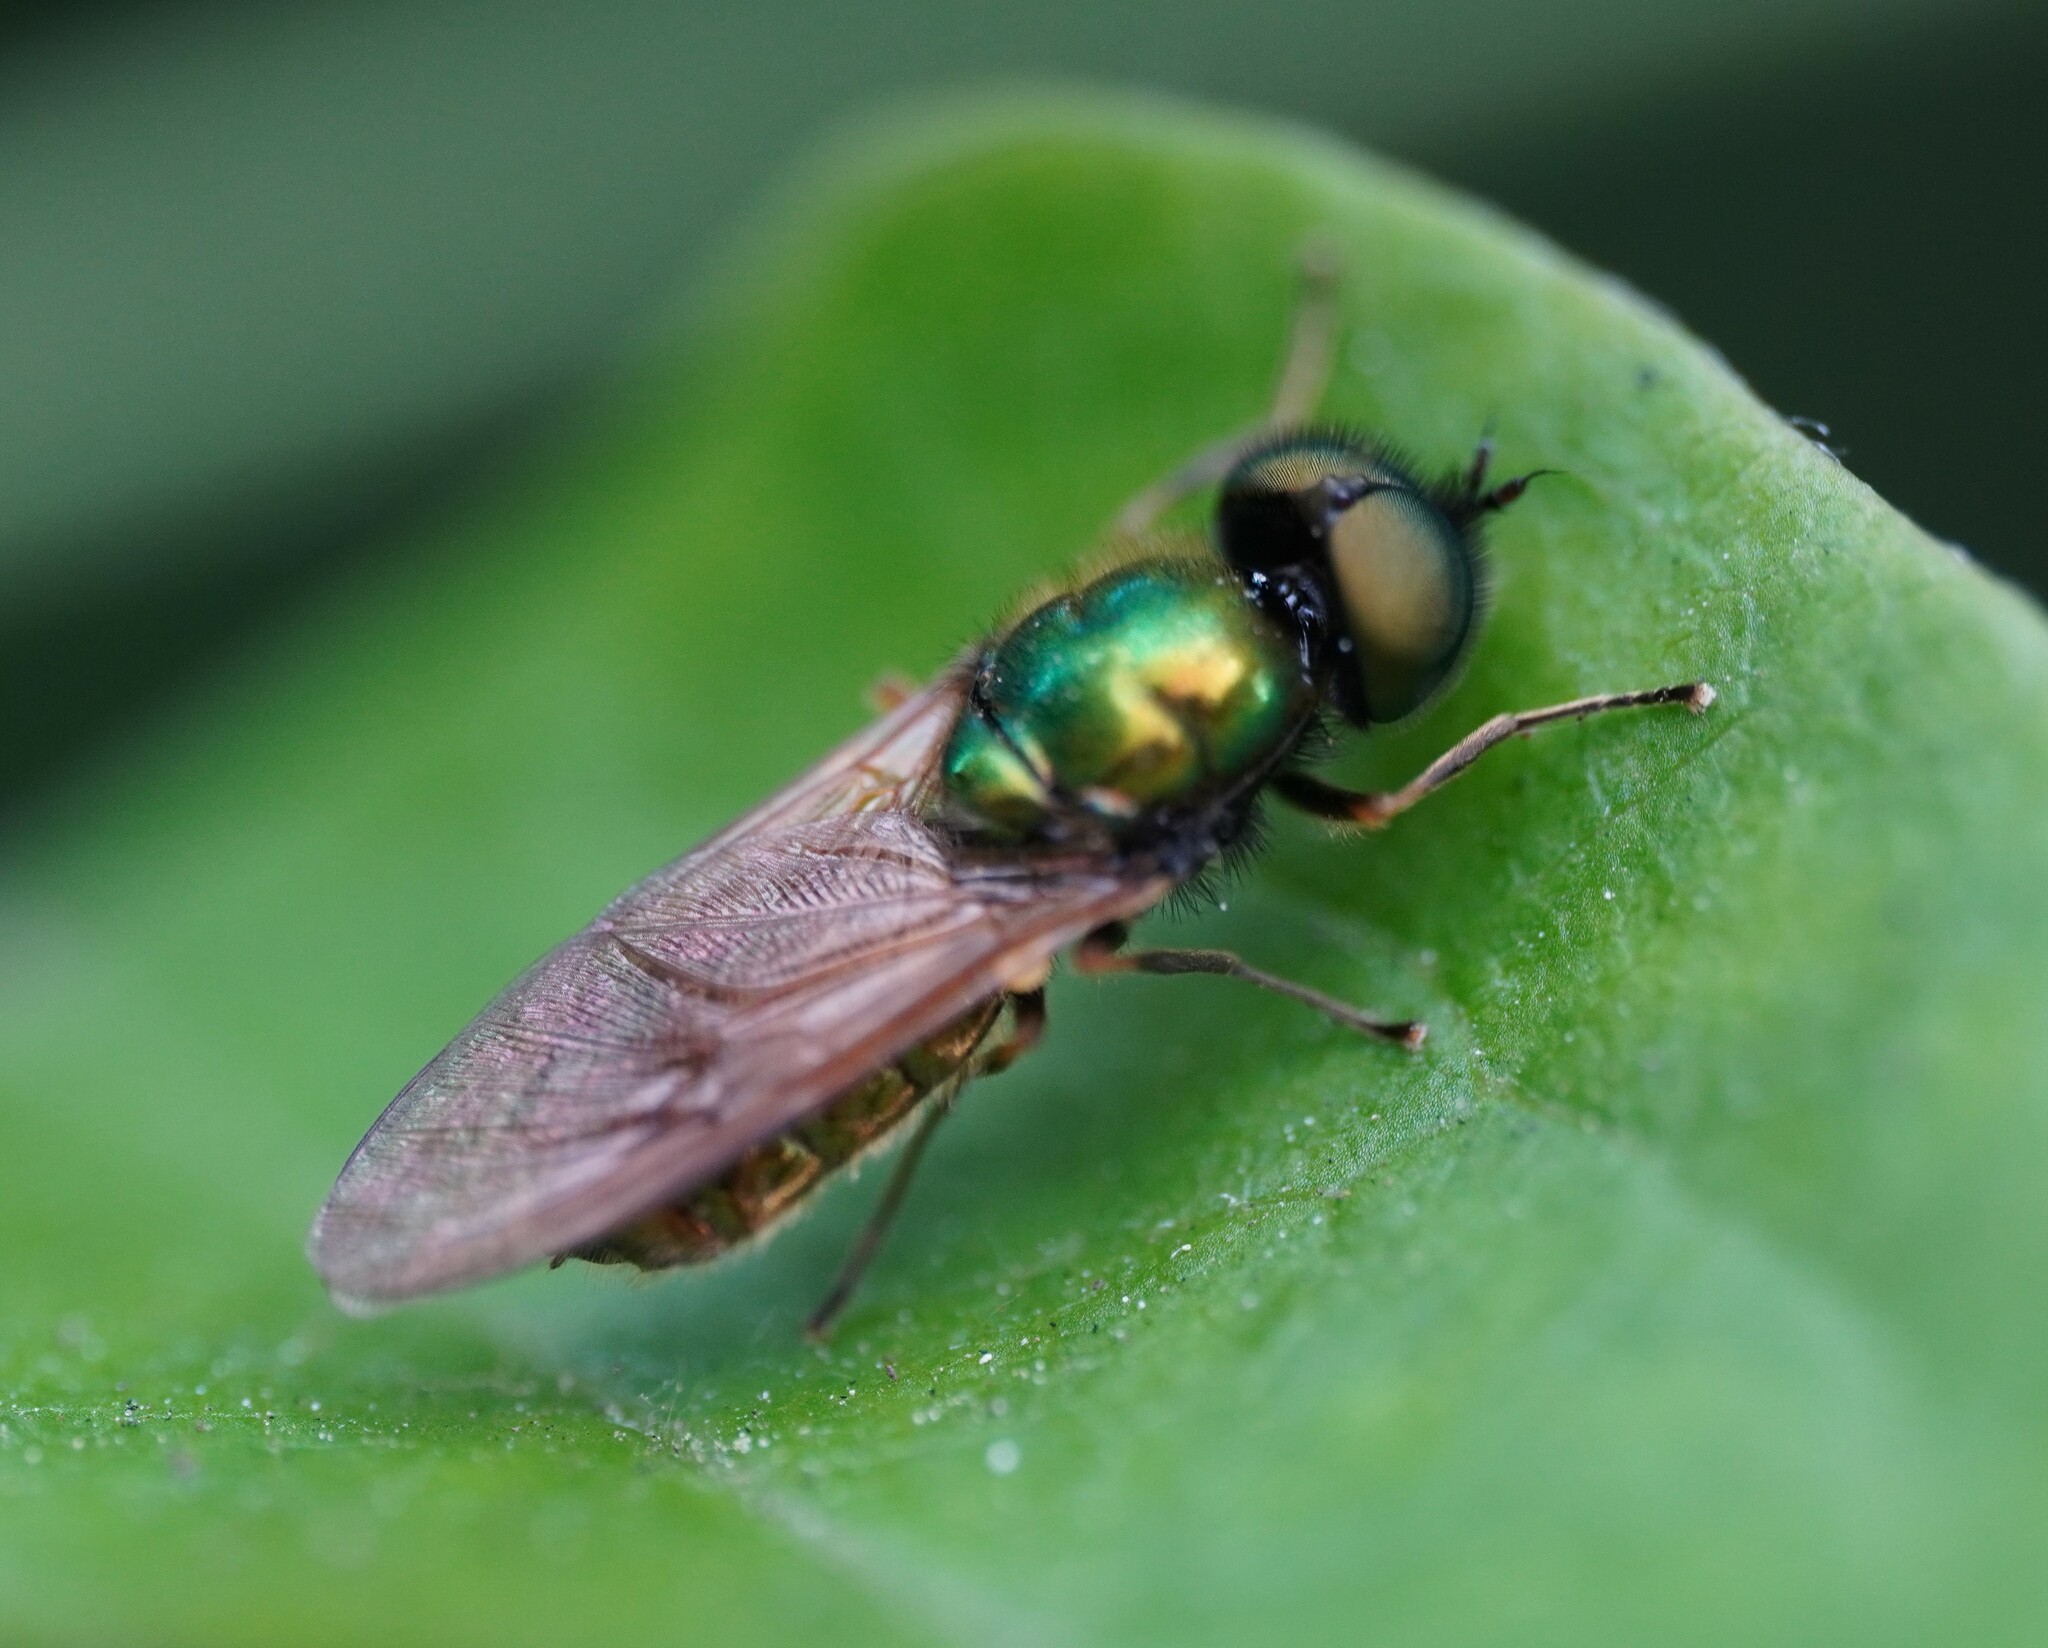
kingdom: Animalia
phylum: Arthropoda
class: Insecta
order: Diptera
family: Stratiomyidae
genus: Chloromyia
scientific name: Chloromyia formosa
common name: Soldier fly
